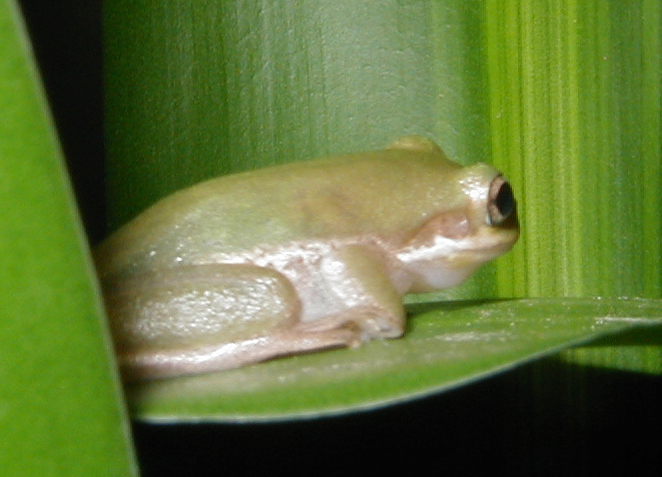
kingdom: Animalia
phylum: Chordata
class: Amphibia
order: Anura
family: Hylidae
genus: Dryophytes
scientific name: Dryophytes squirellus
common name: Squirrel treefrog
